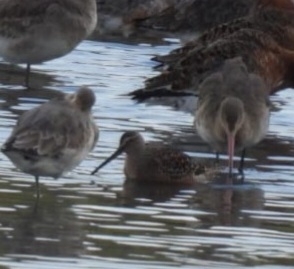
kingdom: Animalia
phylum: Chordata
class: Aves
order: Charadriiformes
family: Scolopacidae
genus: Limnodromus
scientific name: Limnodromus scolopaceus
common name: Long-billed dowitcher
